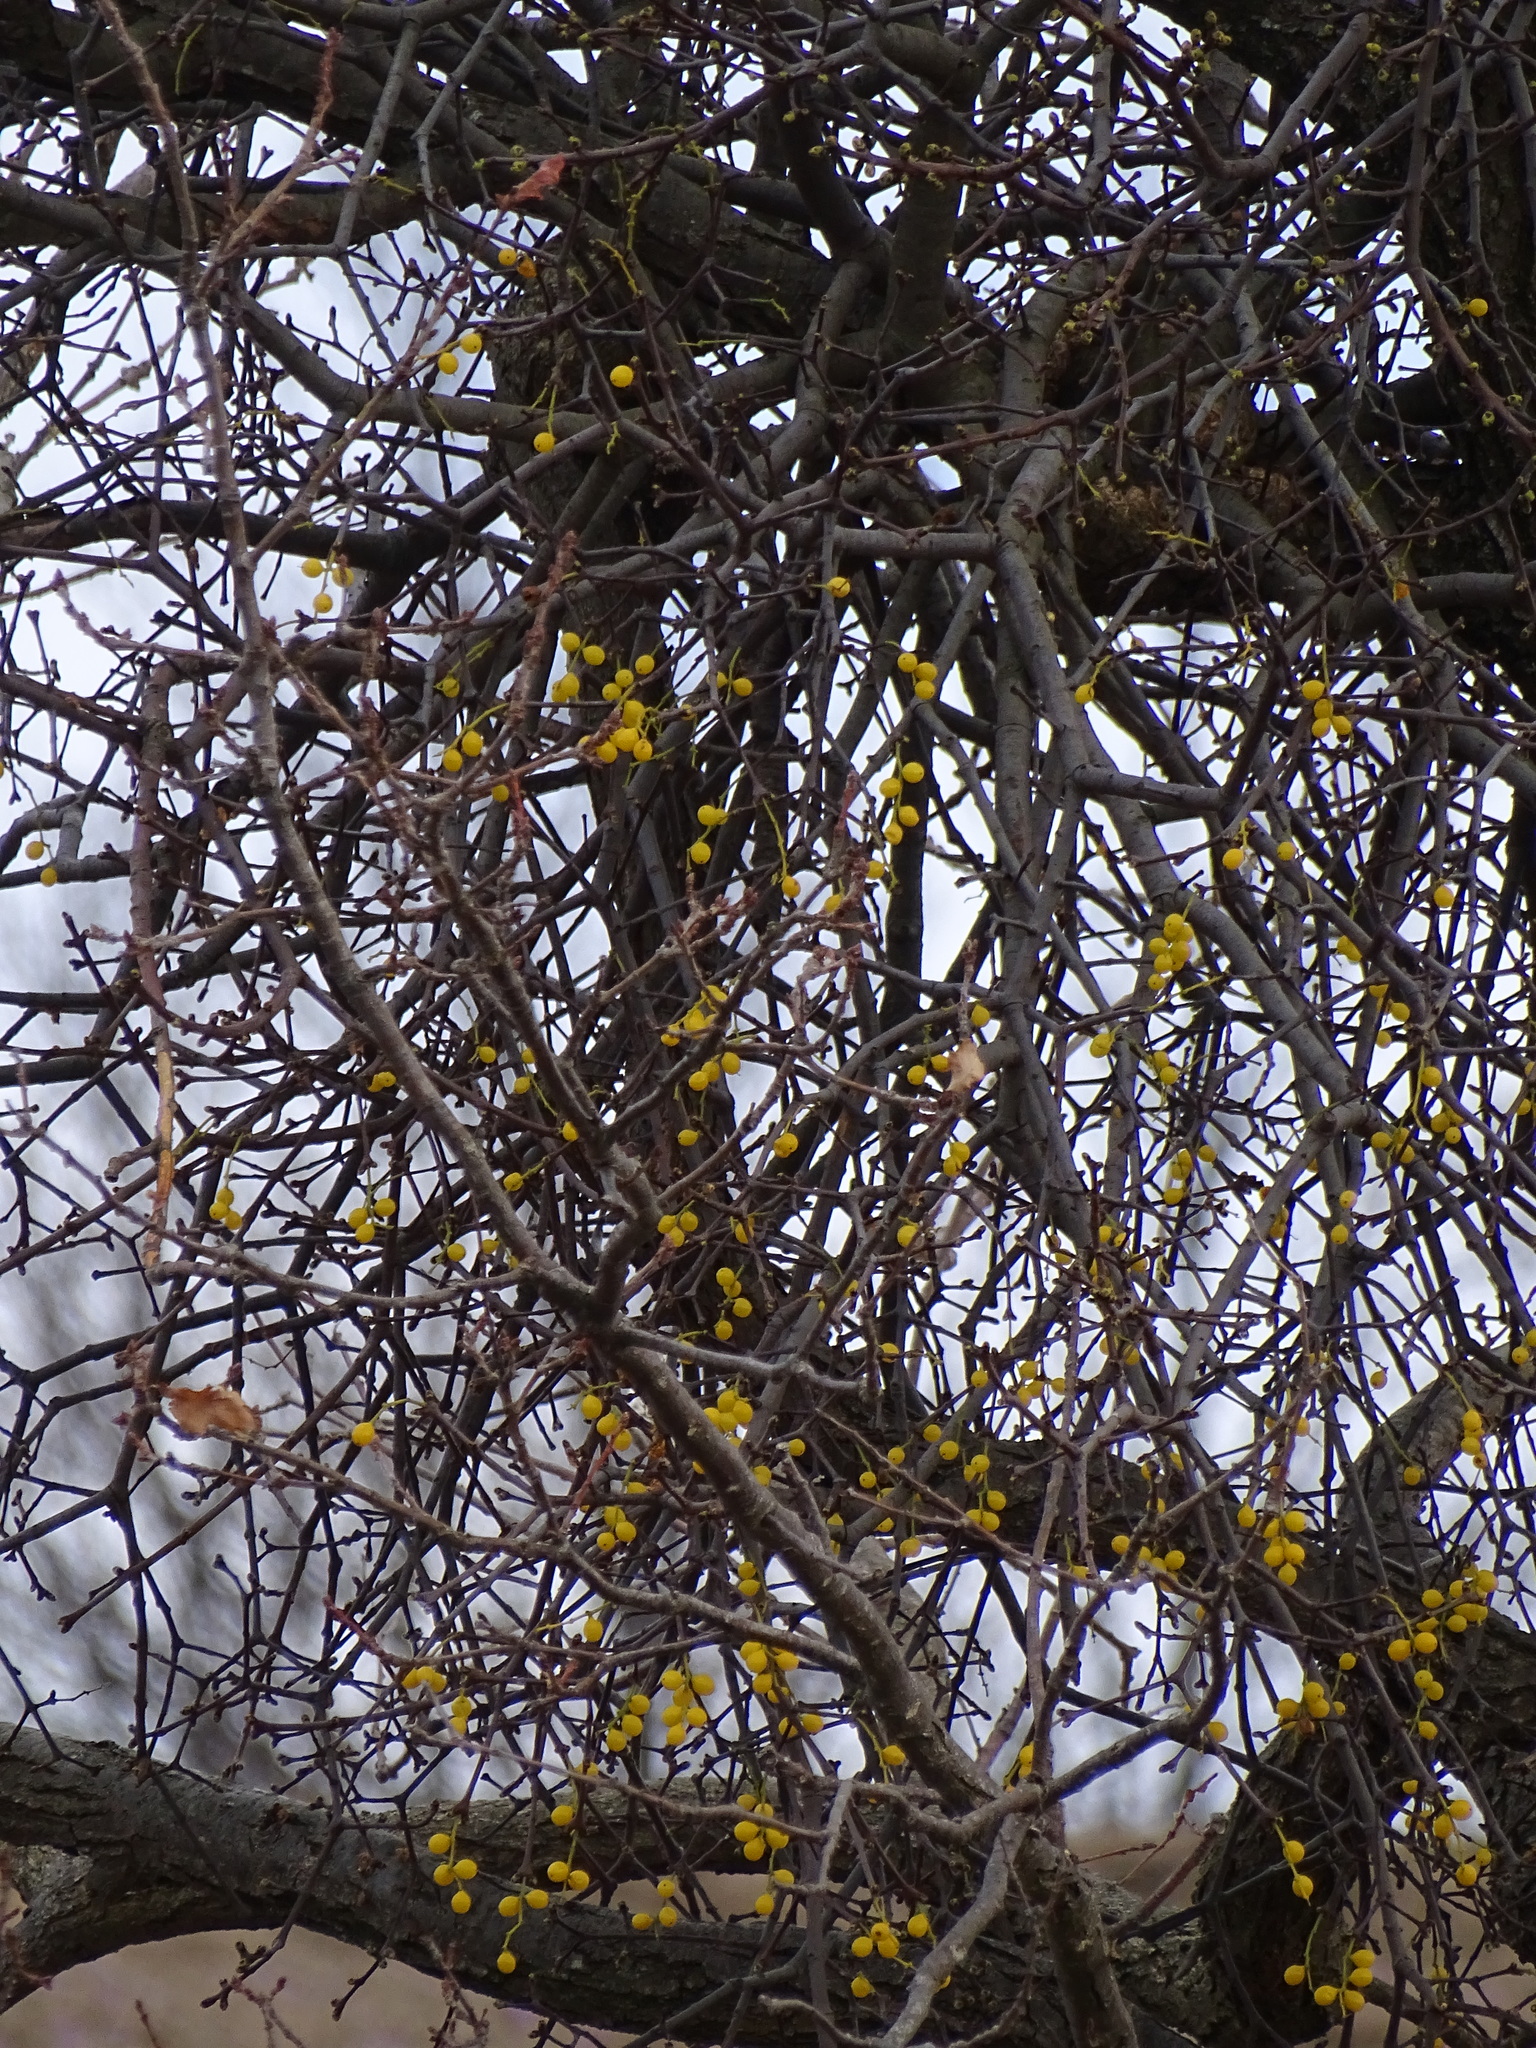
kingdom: Plantae
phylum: Tracheophyta
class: Magnoliopsida
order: Santalales
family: Loranthaceae
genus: Loranthus
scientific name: Loranthus europaeus
